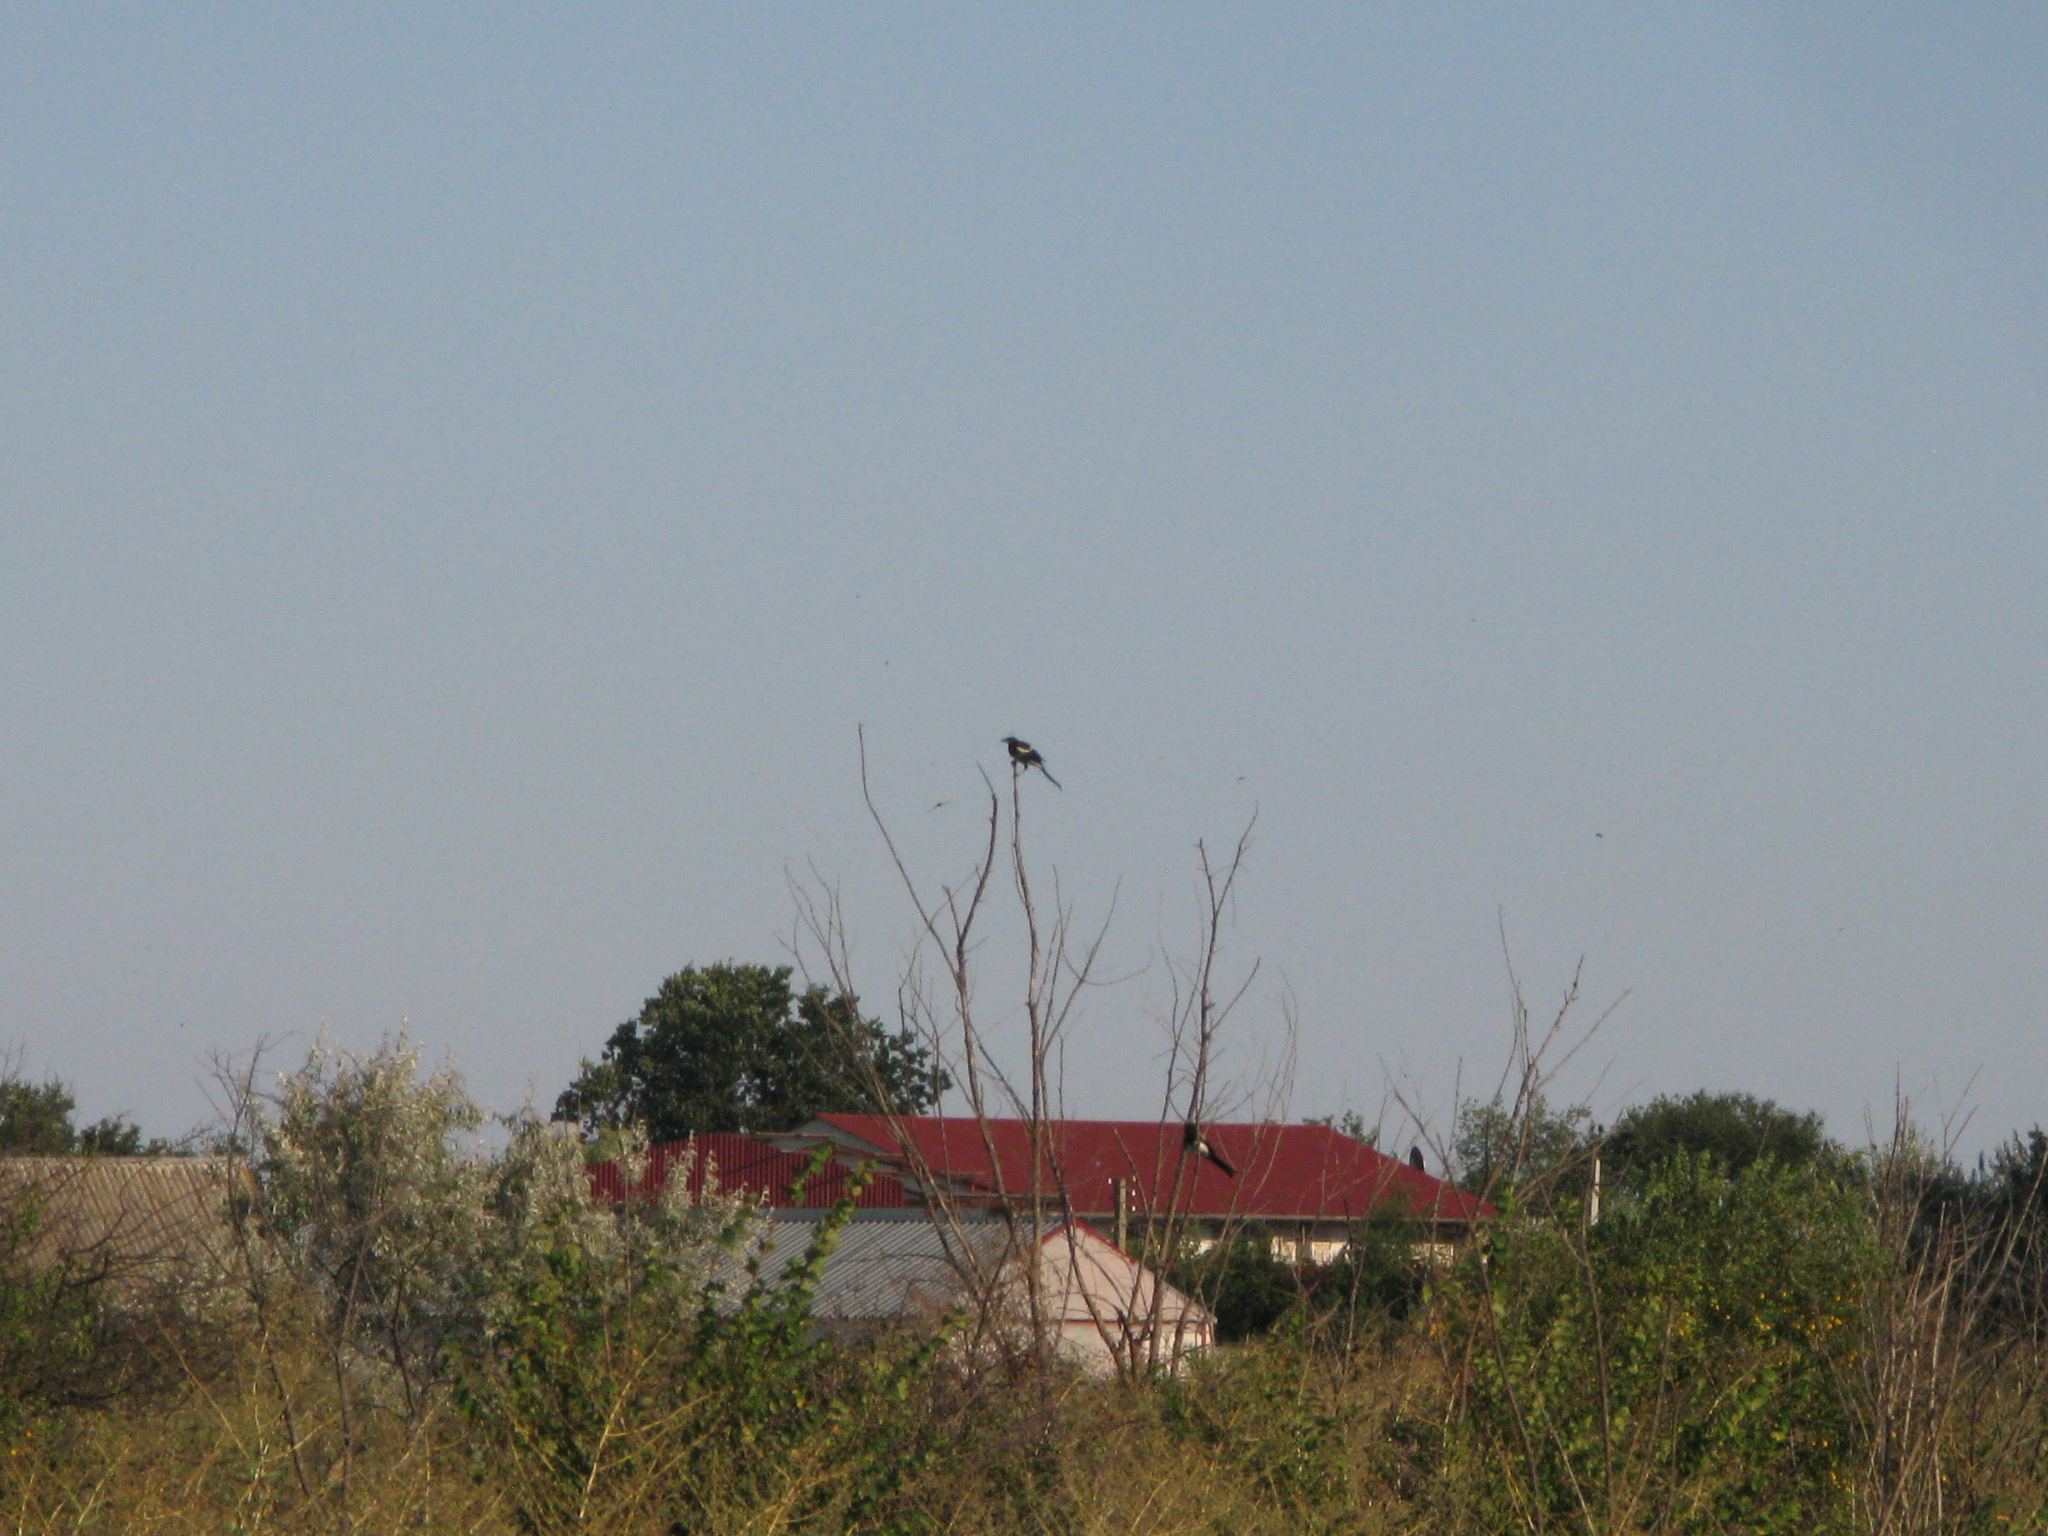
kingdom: Animalia
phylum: Chordata
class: Aves
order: Passeriformes
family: Corvidae
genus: Pica
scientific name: Pica pica
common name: Eurasian magpie
